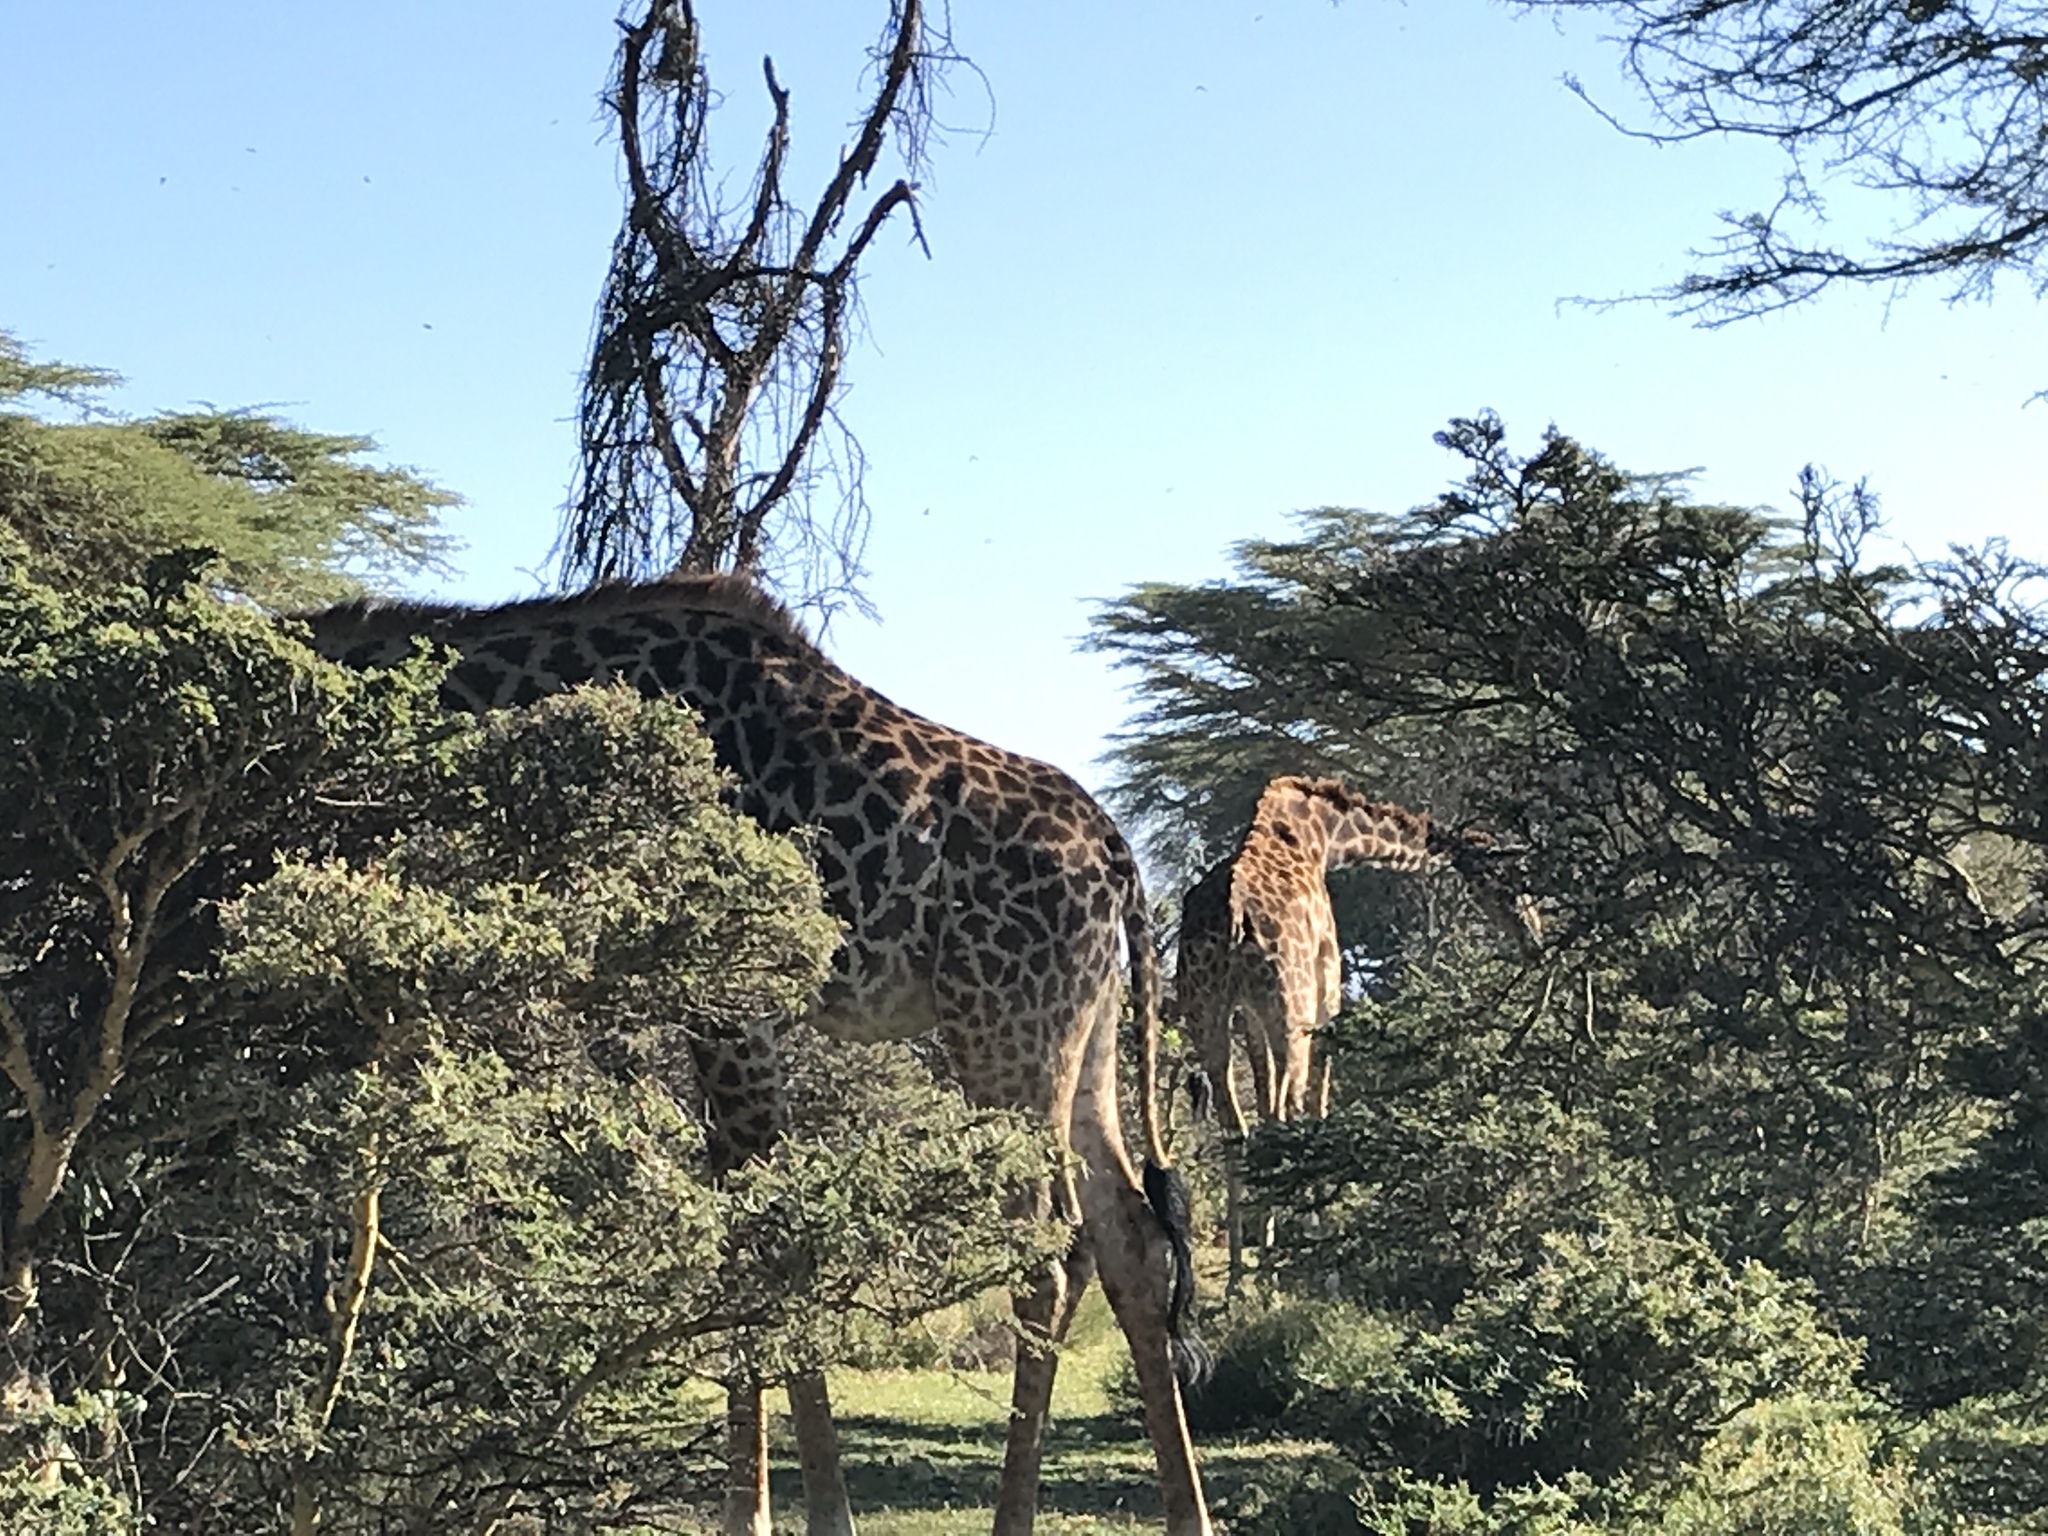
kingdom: Animalia
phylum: Chordata
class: Mammalia
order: Artiodactyla
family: Giraffidae
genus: Giraffa
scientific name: Giraffa tippelskirchi
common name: Masai giraffe
